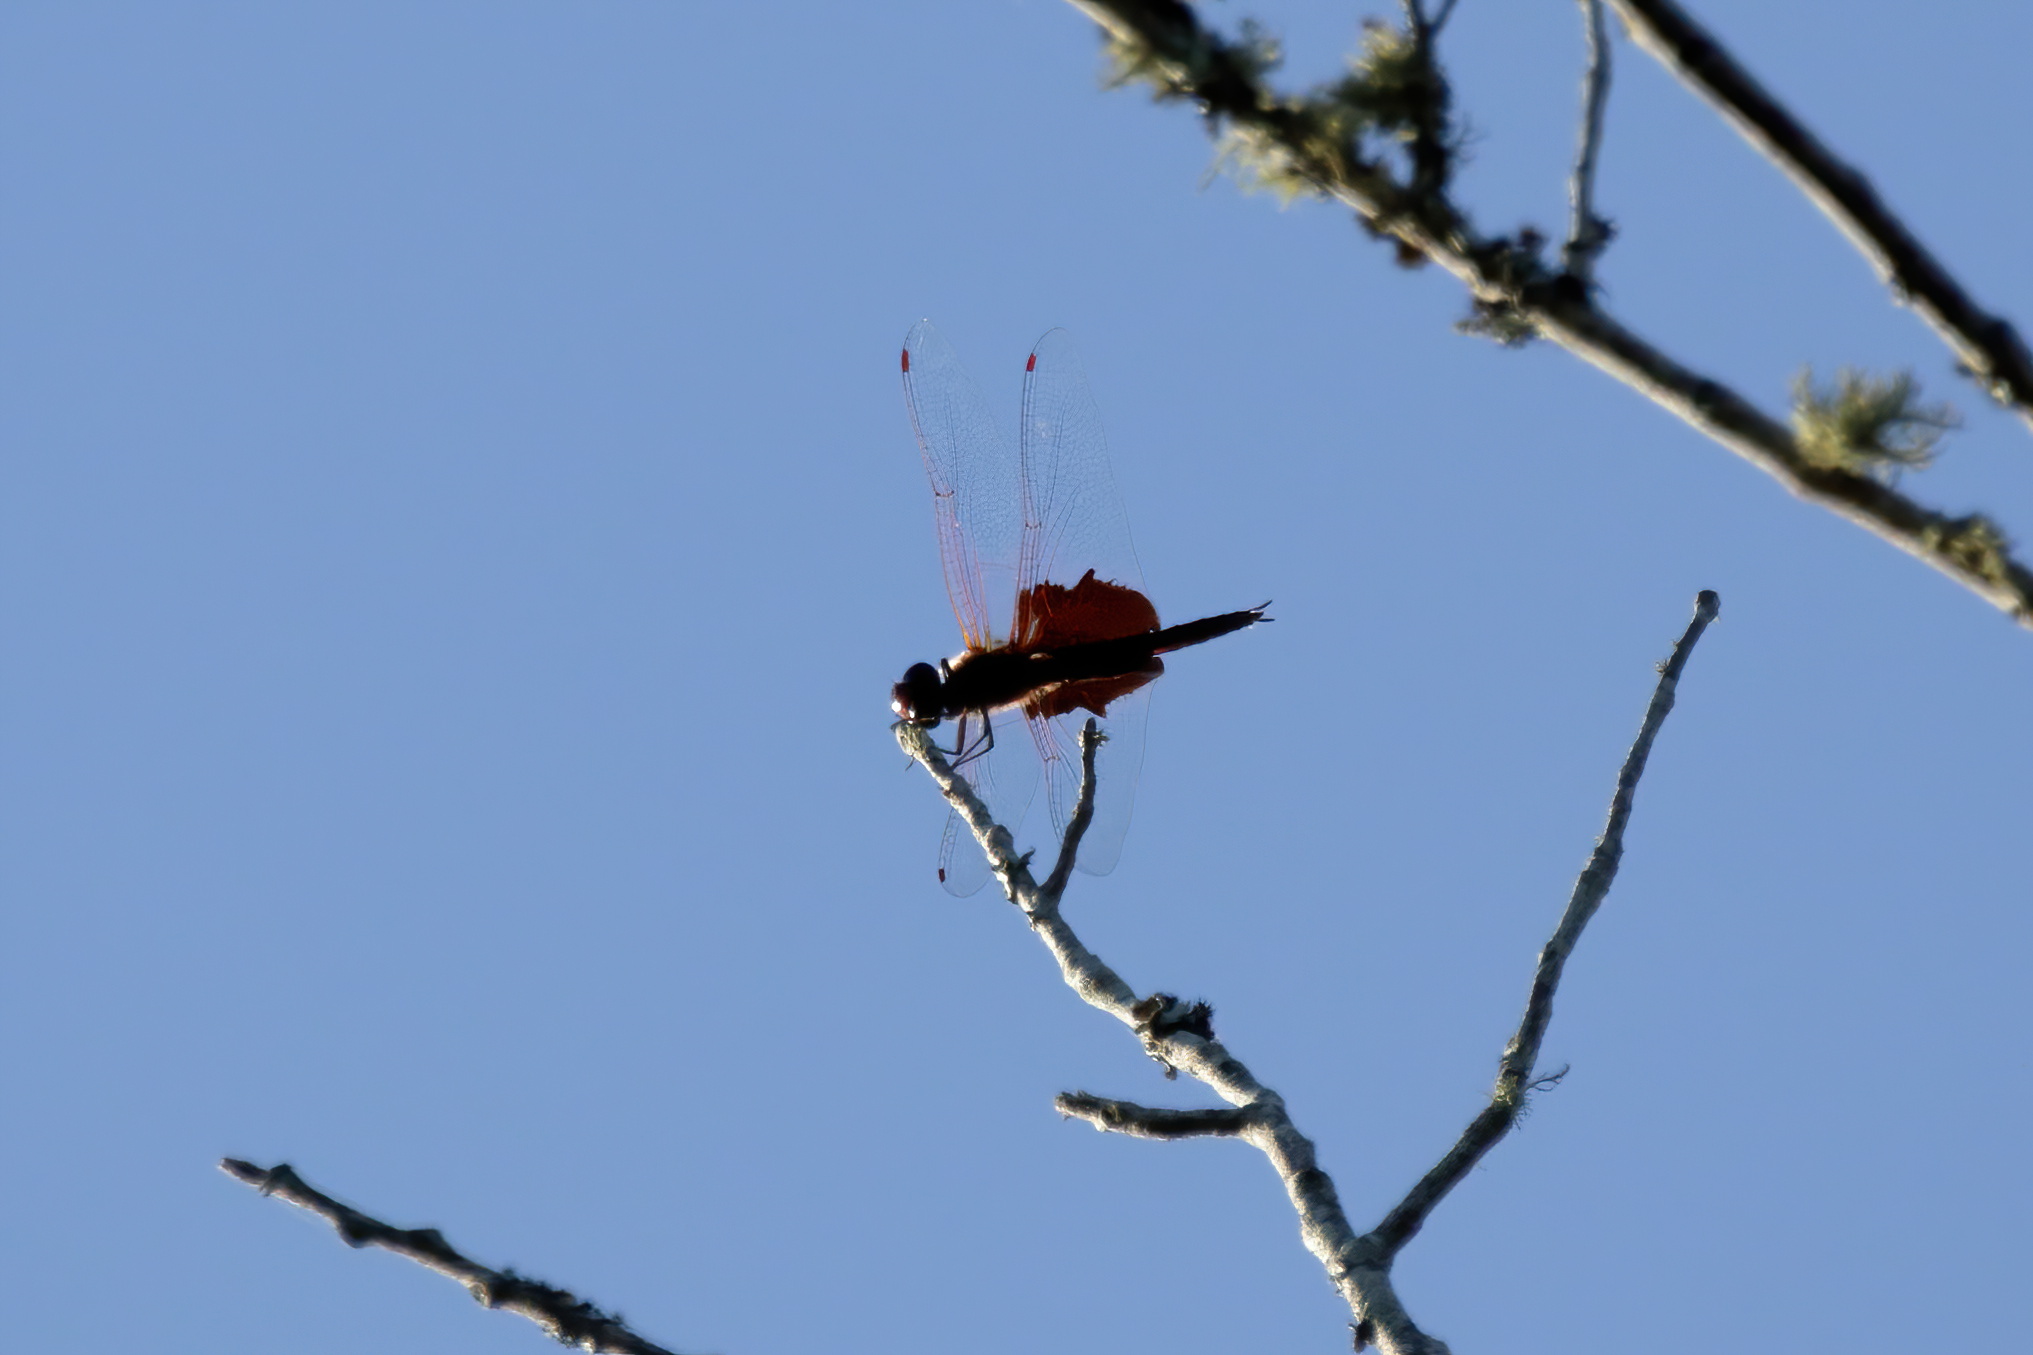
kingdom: Animalia
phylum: Arthropoda
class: Insecta
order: Odonata
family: Libellulidae
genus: Tramea
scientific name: Tramea carolina
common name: Carolina saddlebags
